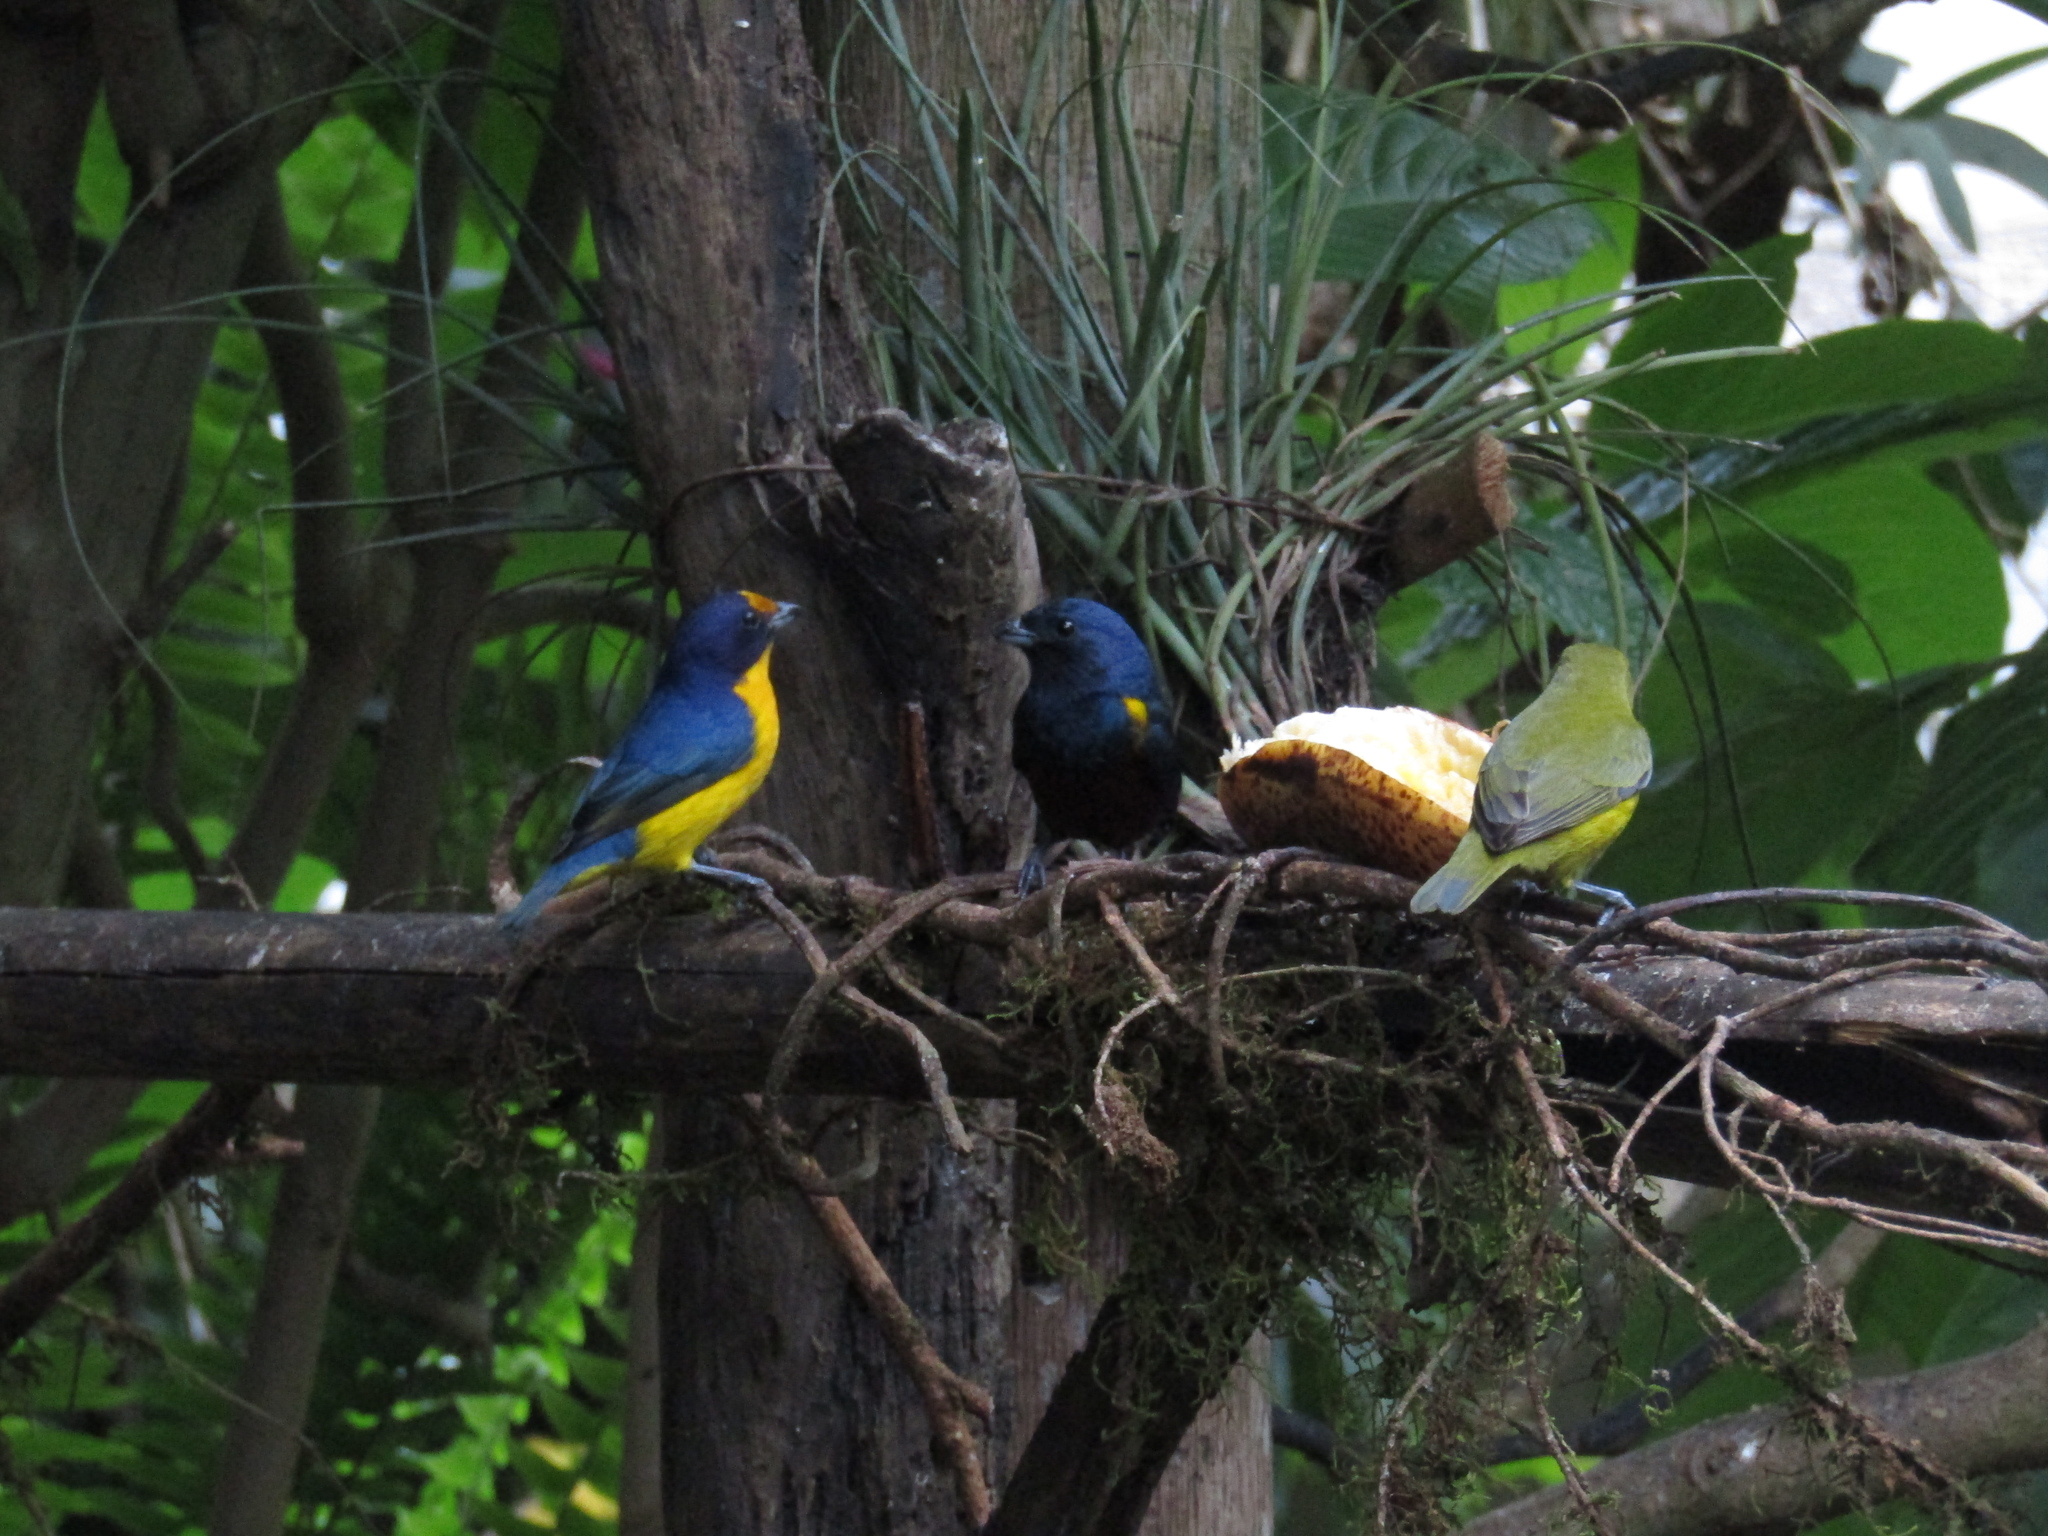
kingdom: Animalia
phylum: Chordata
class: Aves
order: Passeriformes
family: Fringillidae
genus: Euphonia
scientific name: Euphonia pectoralis
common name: Chestnut-bellied euphonia
